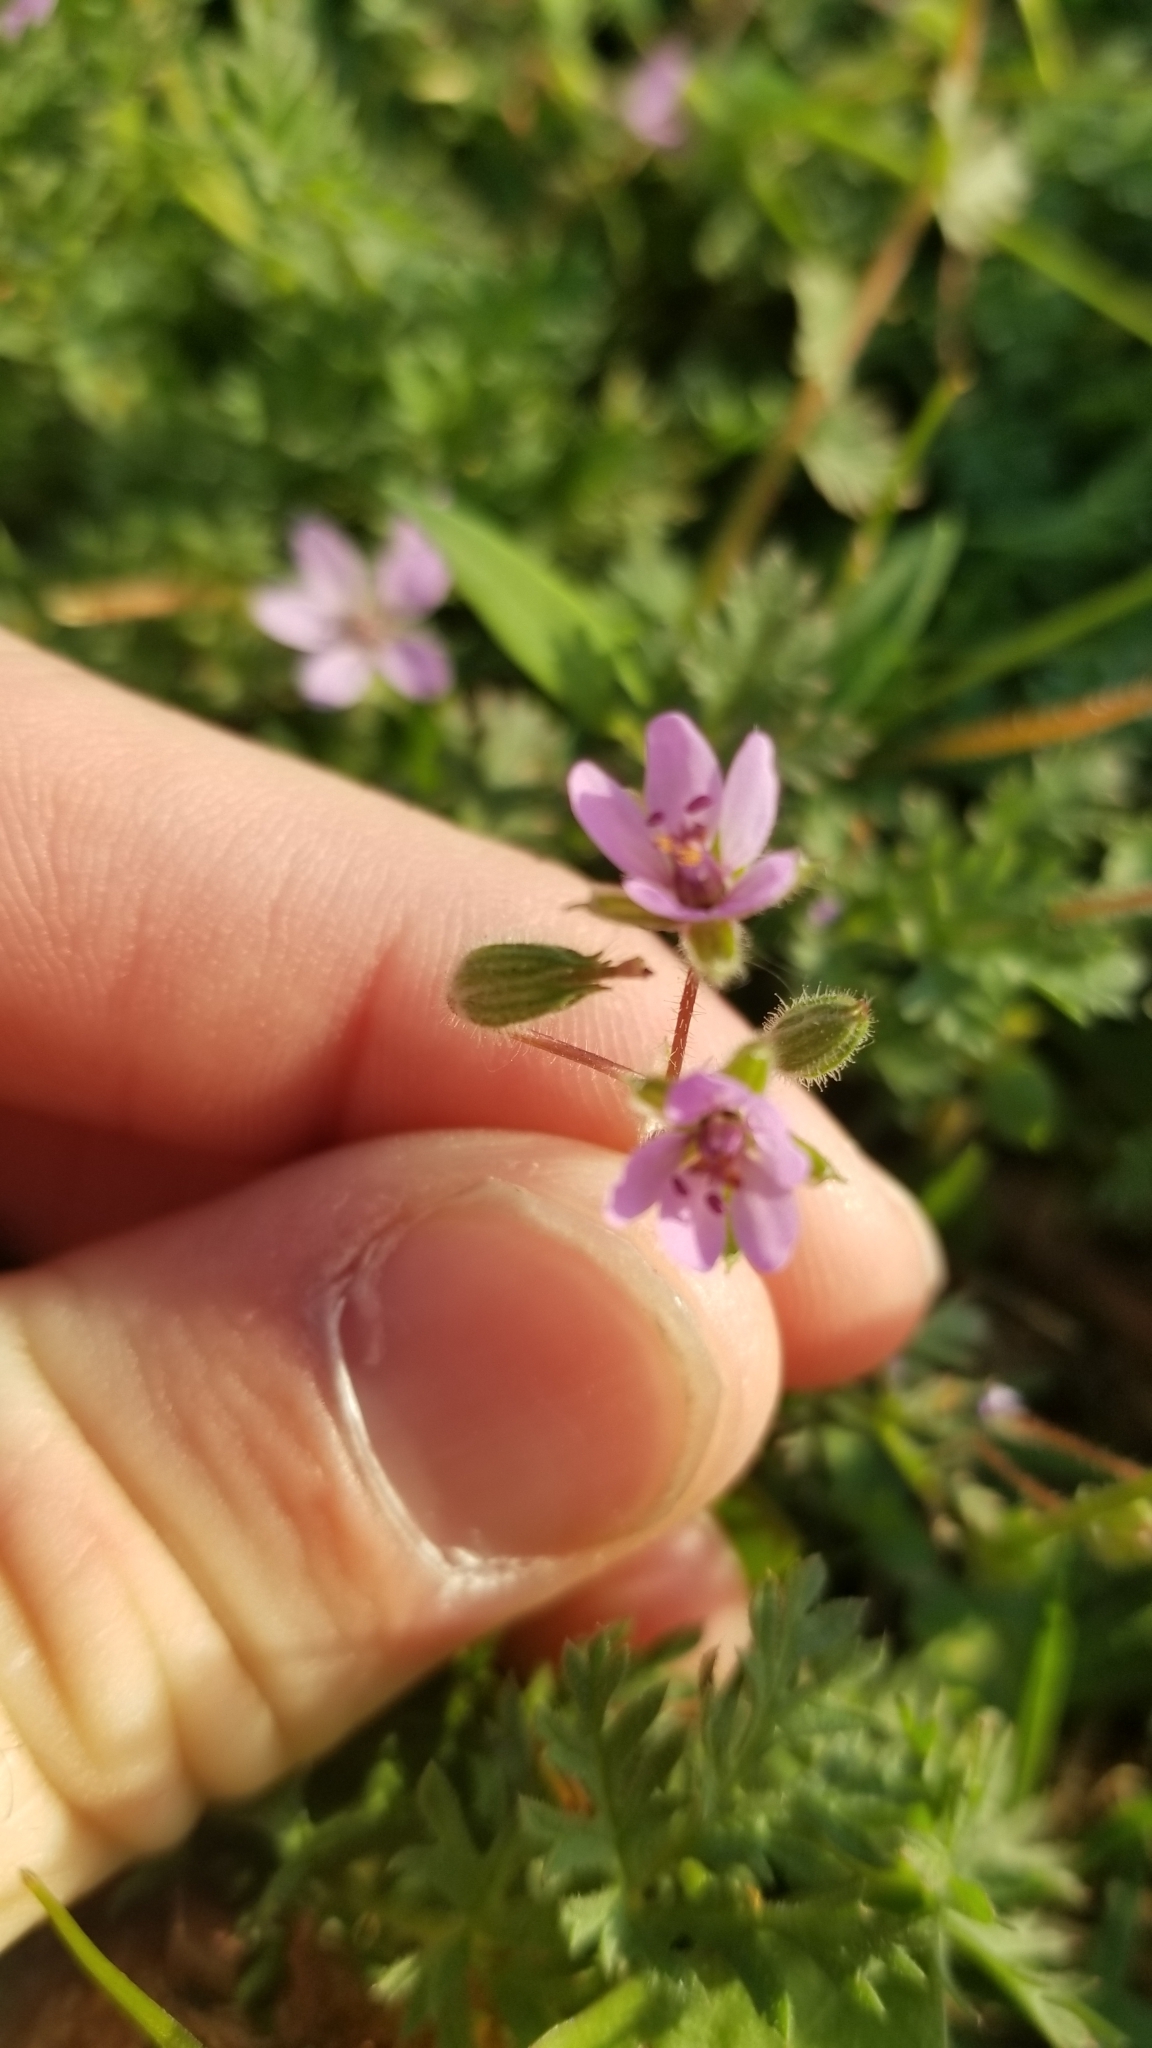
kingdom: Plantae
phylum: Tracheophyta
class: Magnoliopsida
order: Geraniales
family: Geraniaceae
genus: Erodium
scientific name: Erodium cicutarium
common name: Common stork's-bill
